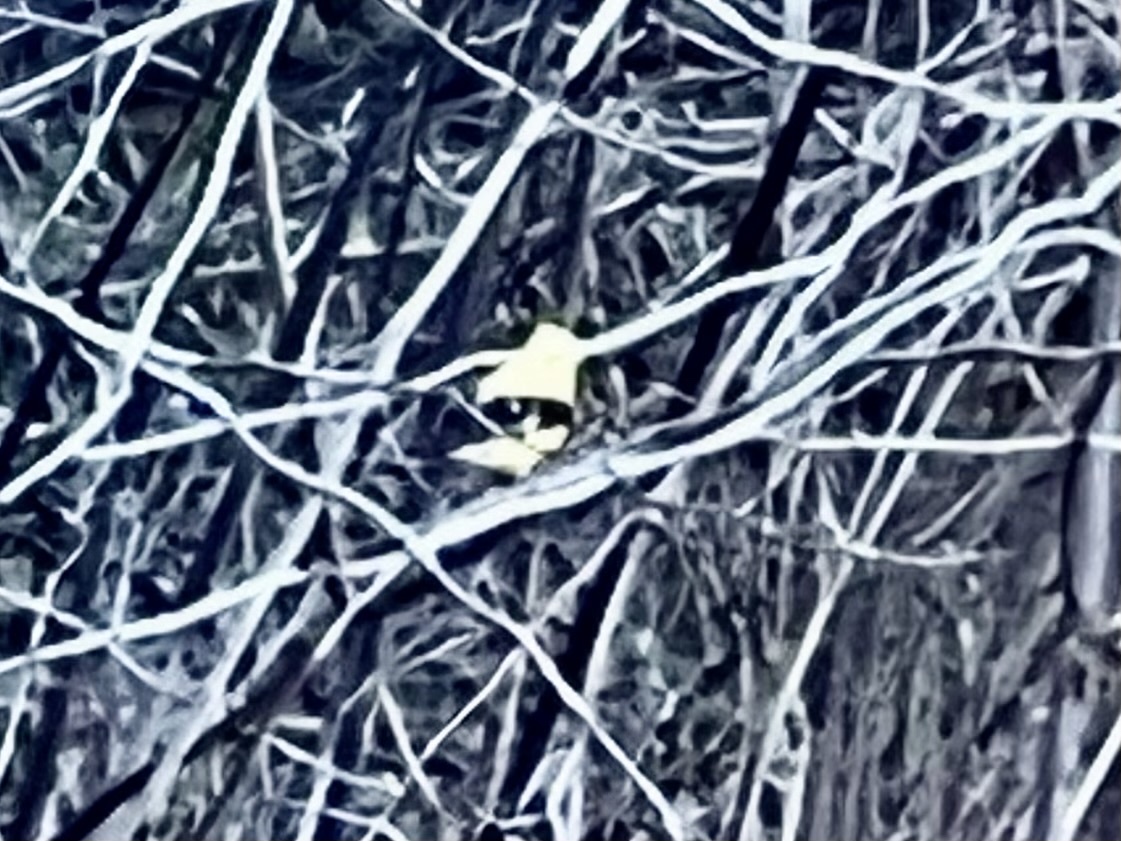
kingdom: Animalia
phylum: Chordata
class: Aves
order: Passeriformes
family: Fringillidae
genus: Spinus
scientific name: Spinus tristis
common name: American goldfinch
